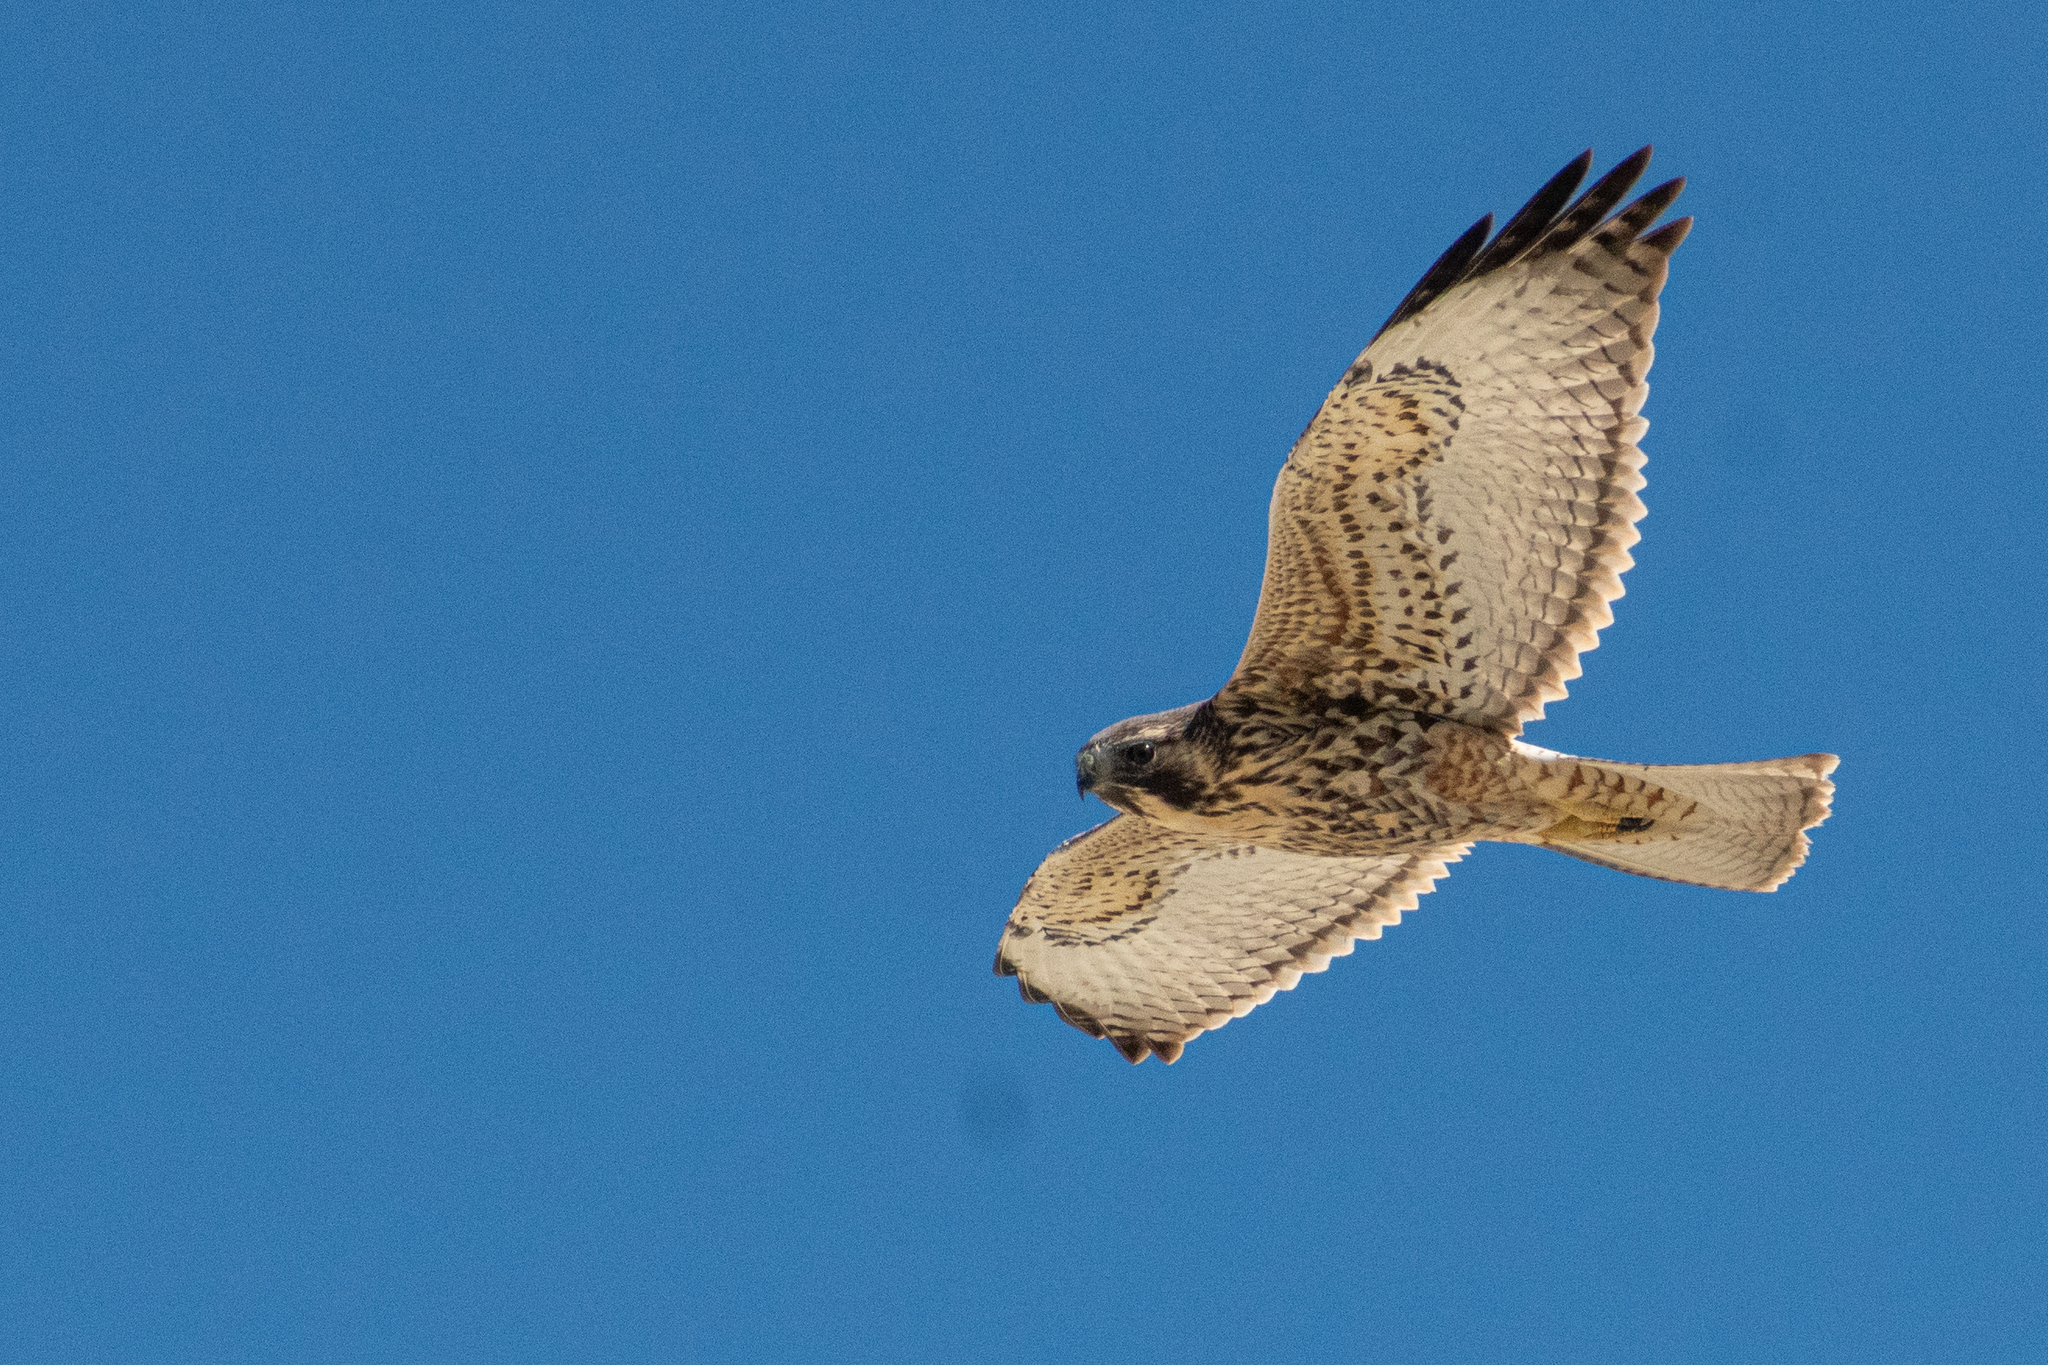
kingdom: Animalia
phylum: Chordata
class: Aves
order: Accipitriformes
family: Accipitridae
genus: Buteo
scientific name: Buteo polyosoma
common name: Variable hawk
